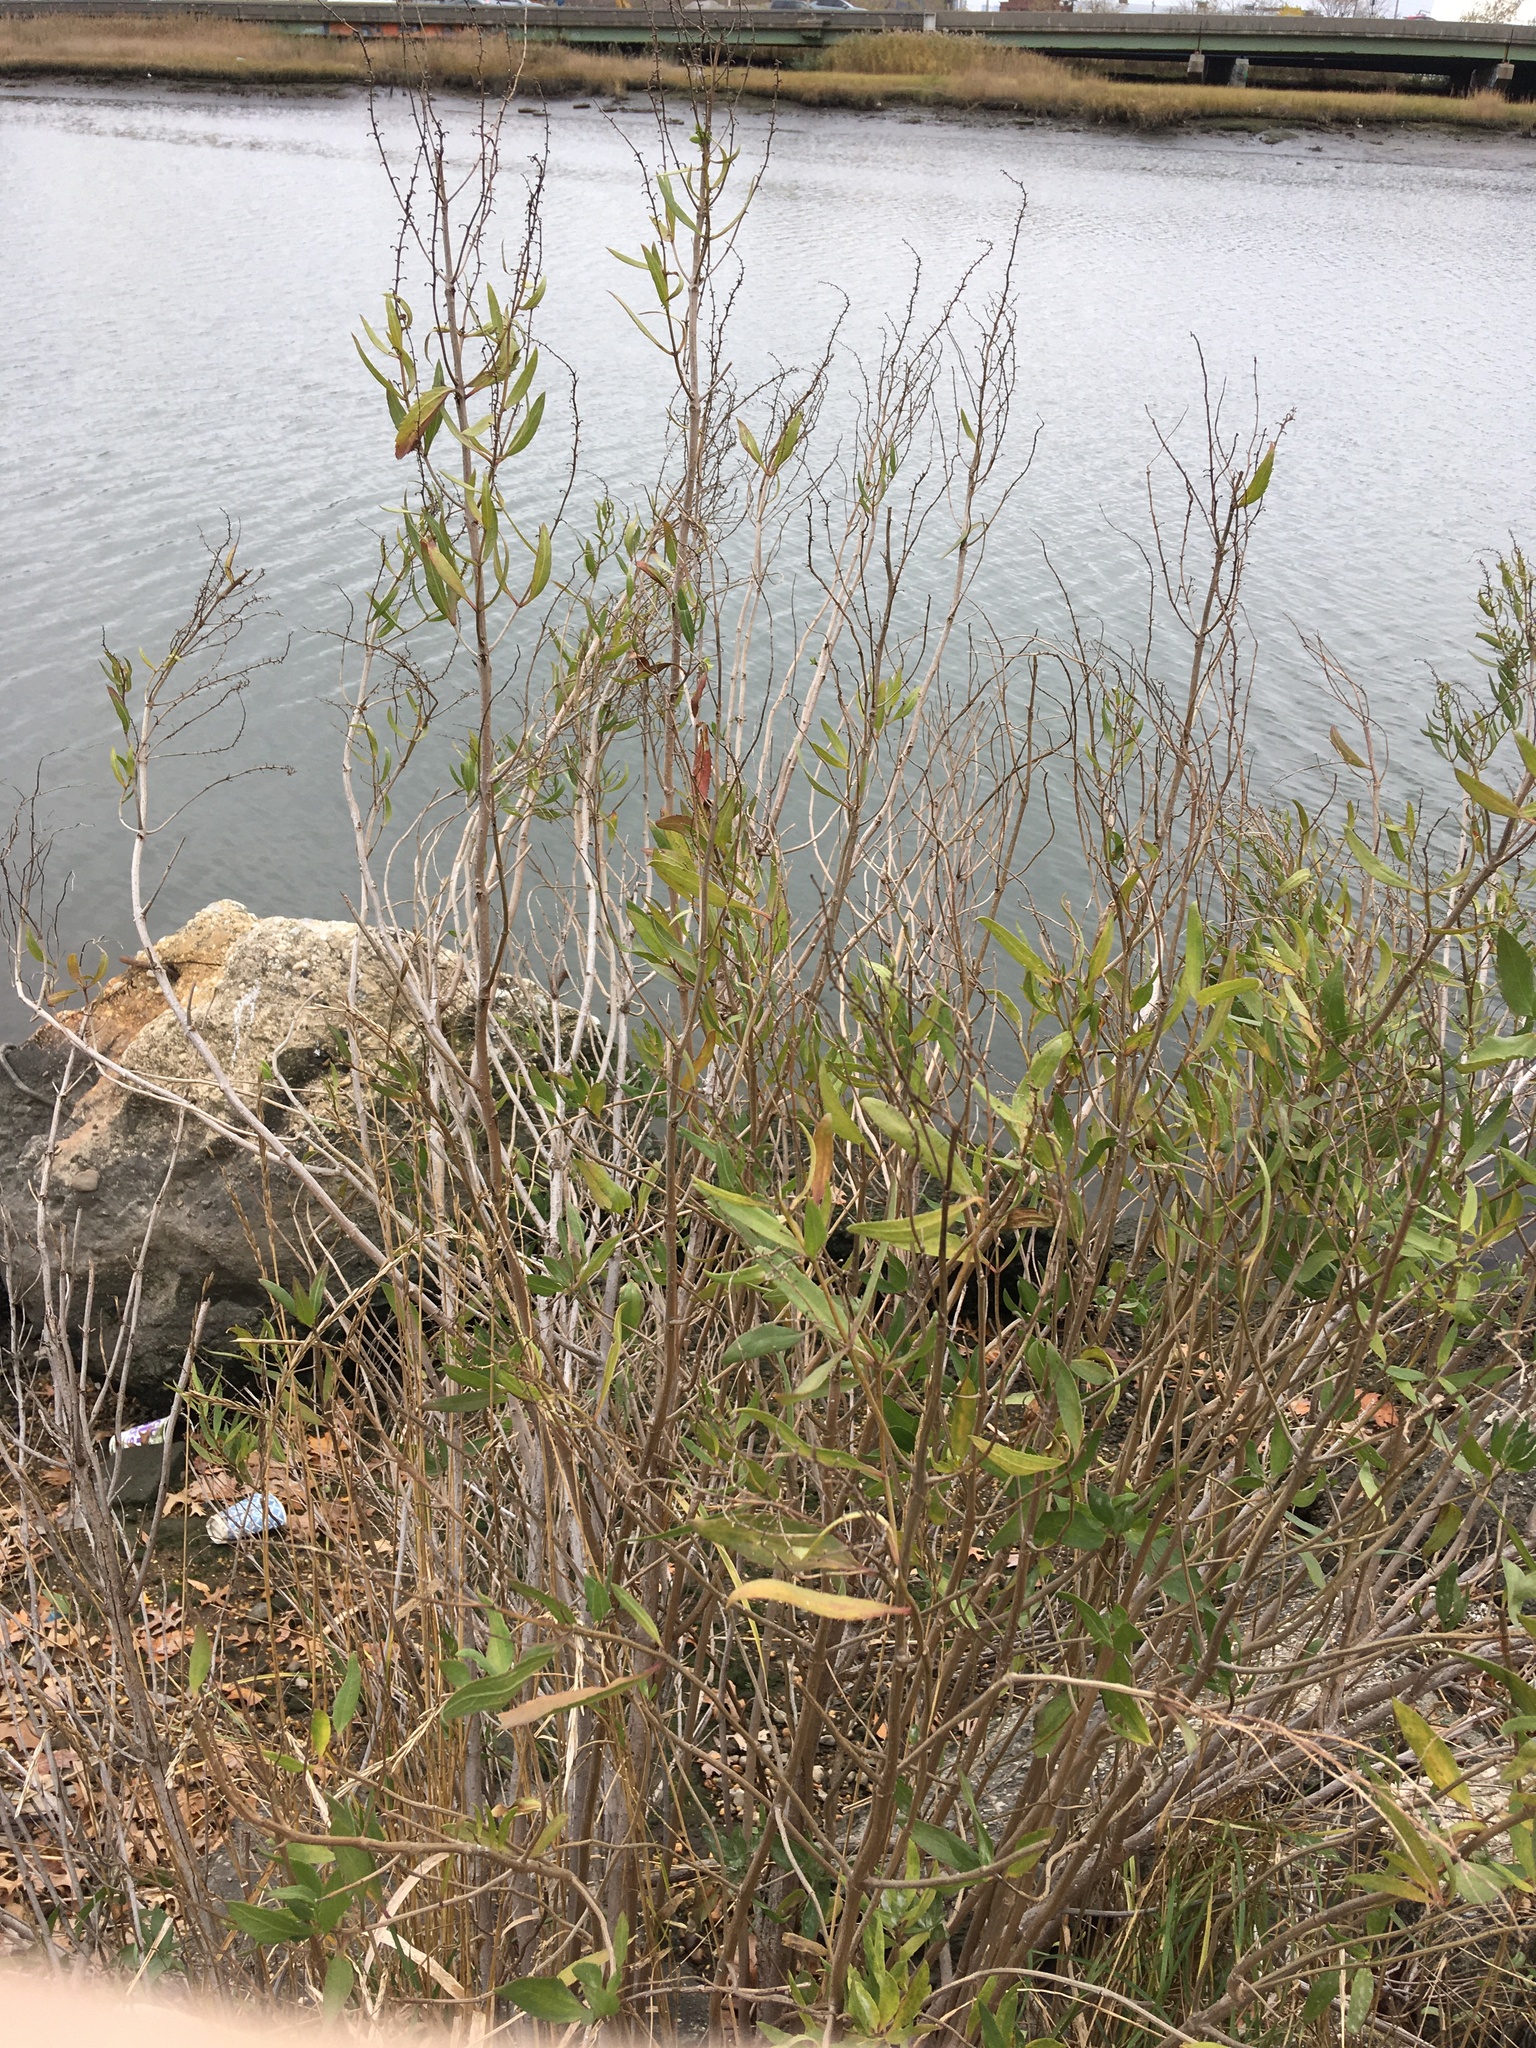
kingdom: Plantae
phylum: Tracheophyta
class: Magnoliopsida
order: Asterales
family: Asteraceae
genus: Iva
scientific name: Iva frutescens
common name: Big-leaved marsh-elder
